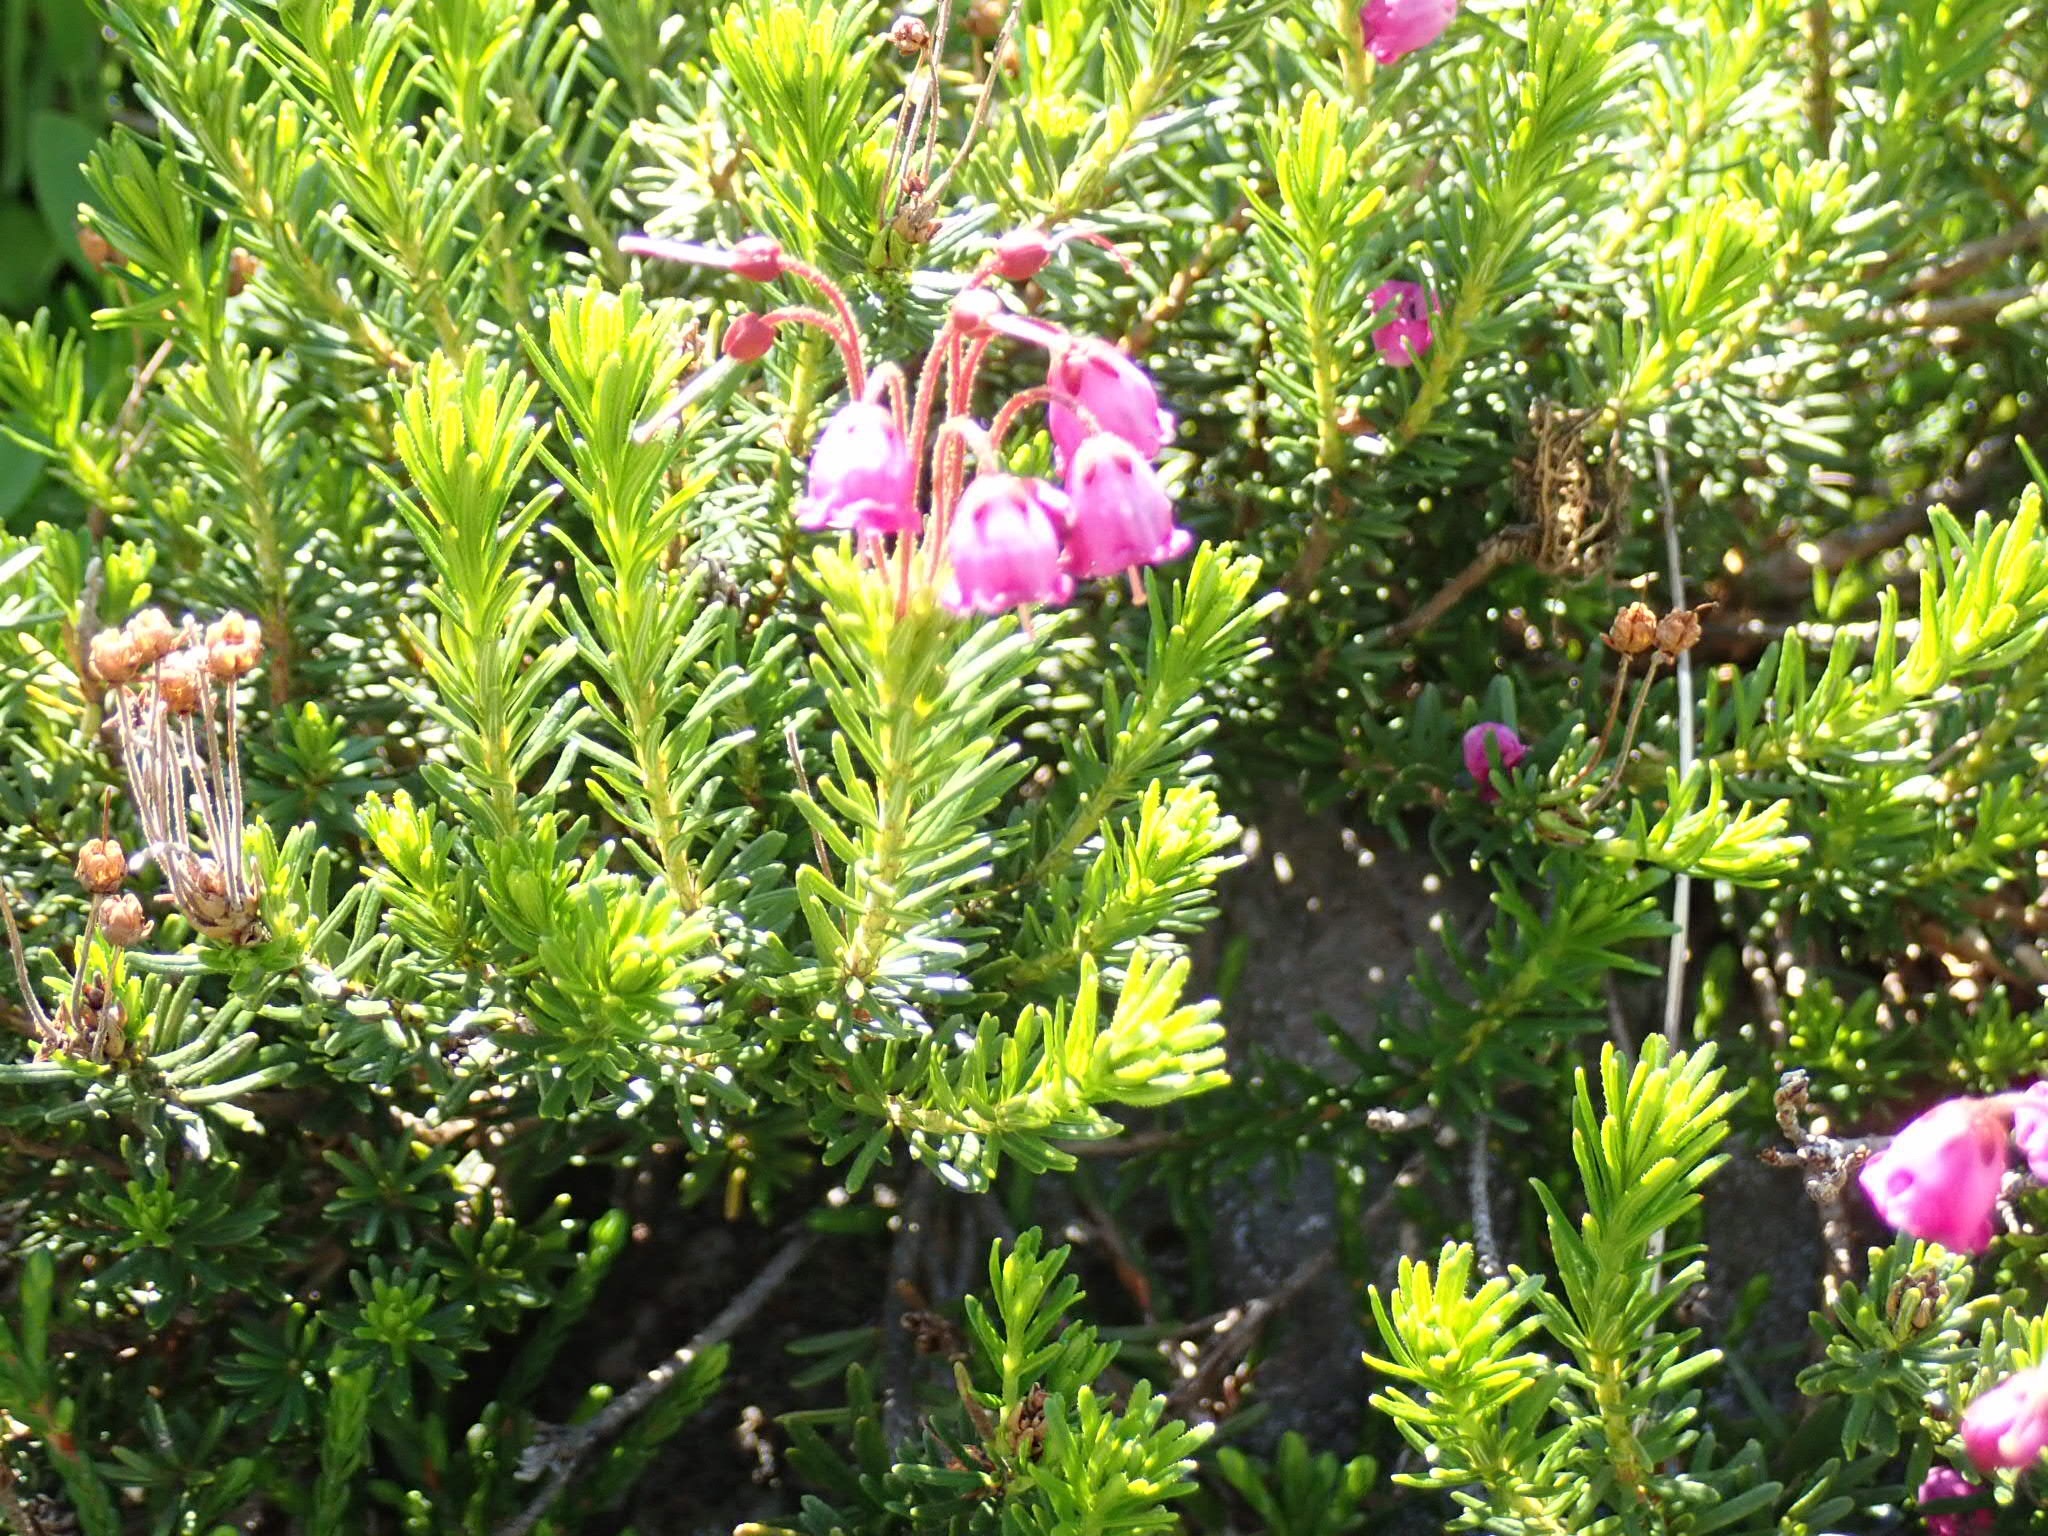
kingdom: Plantae
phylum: Tracheophyta
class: Magnoliopsida
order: Ericales
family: Ericaceae
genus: Phyllodoce
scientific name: Phyllodoce empetriformis
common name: Pink mountain heather
